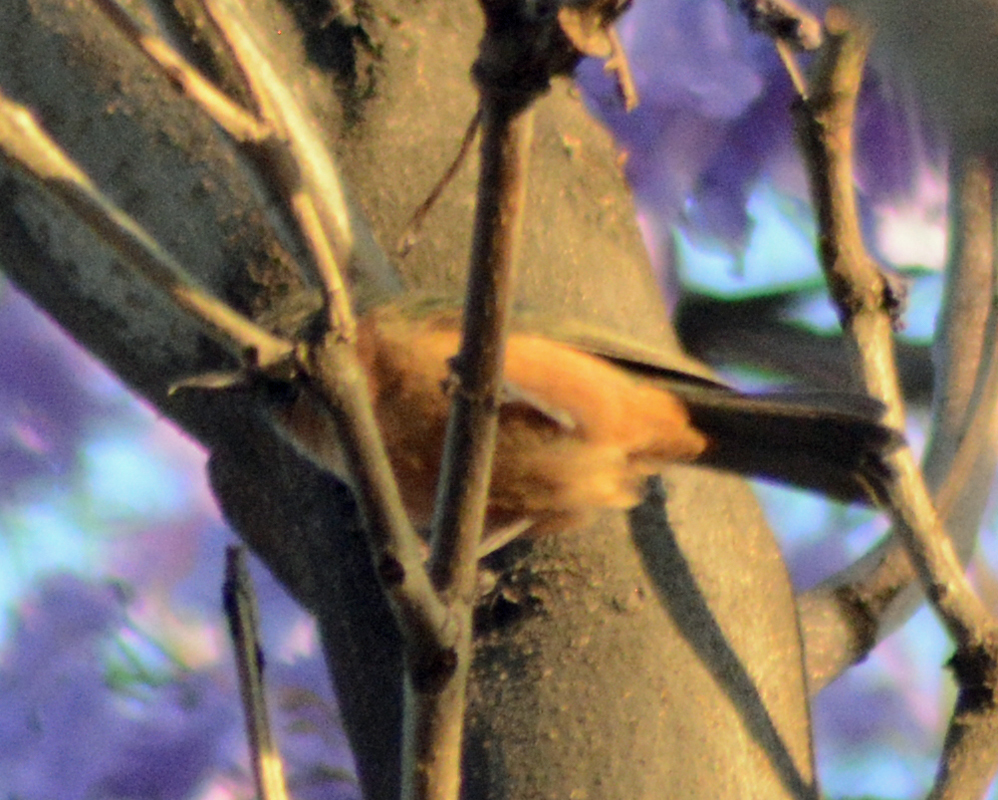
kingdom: Animalia
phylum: Chordata
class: Aves
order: Passeriformes
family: Thraupidae
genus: Diglossa
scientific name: Diglossa baritula
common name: Cinnamon-bellied flowerpiercer
